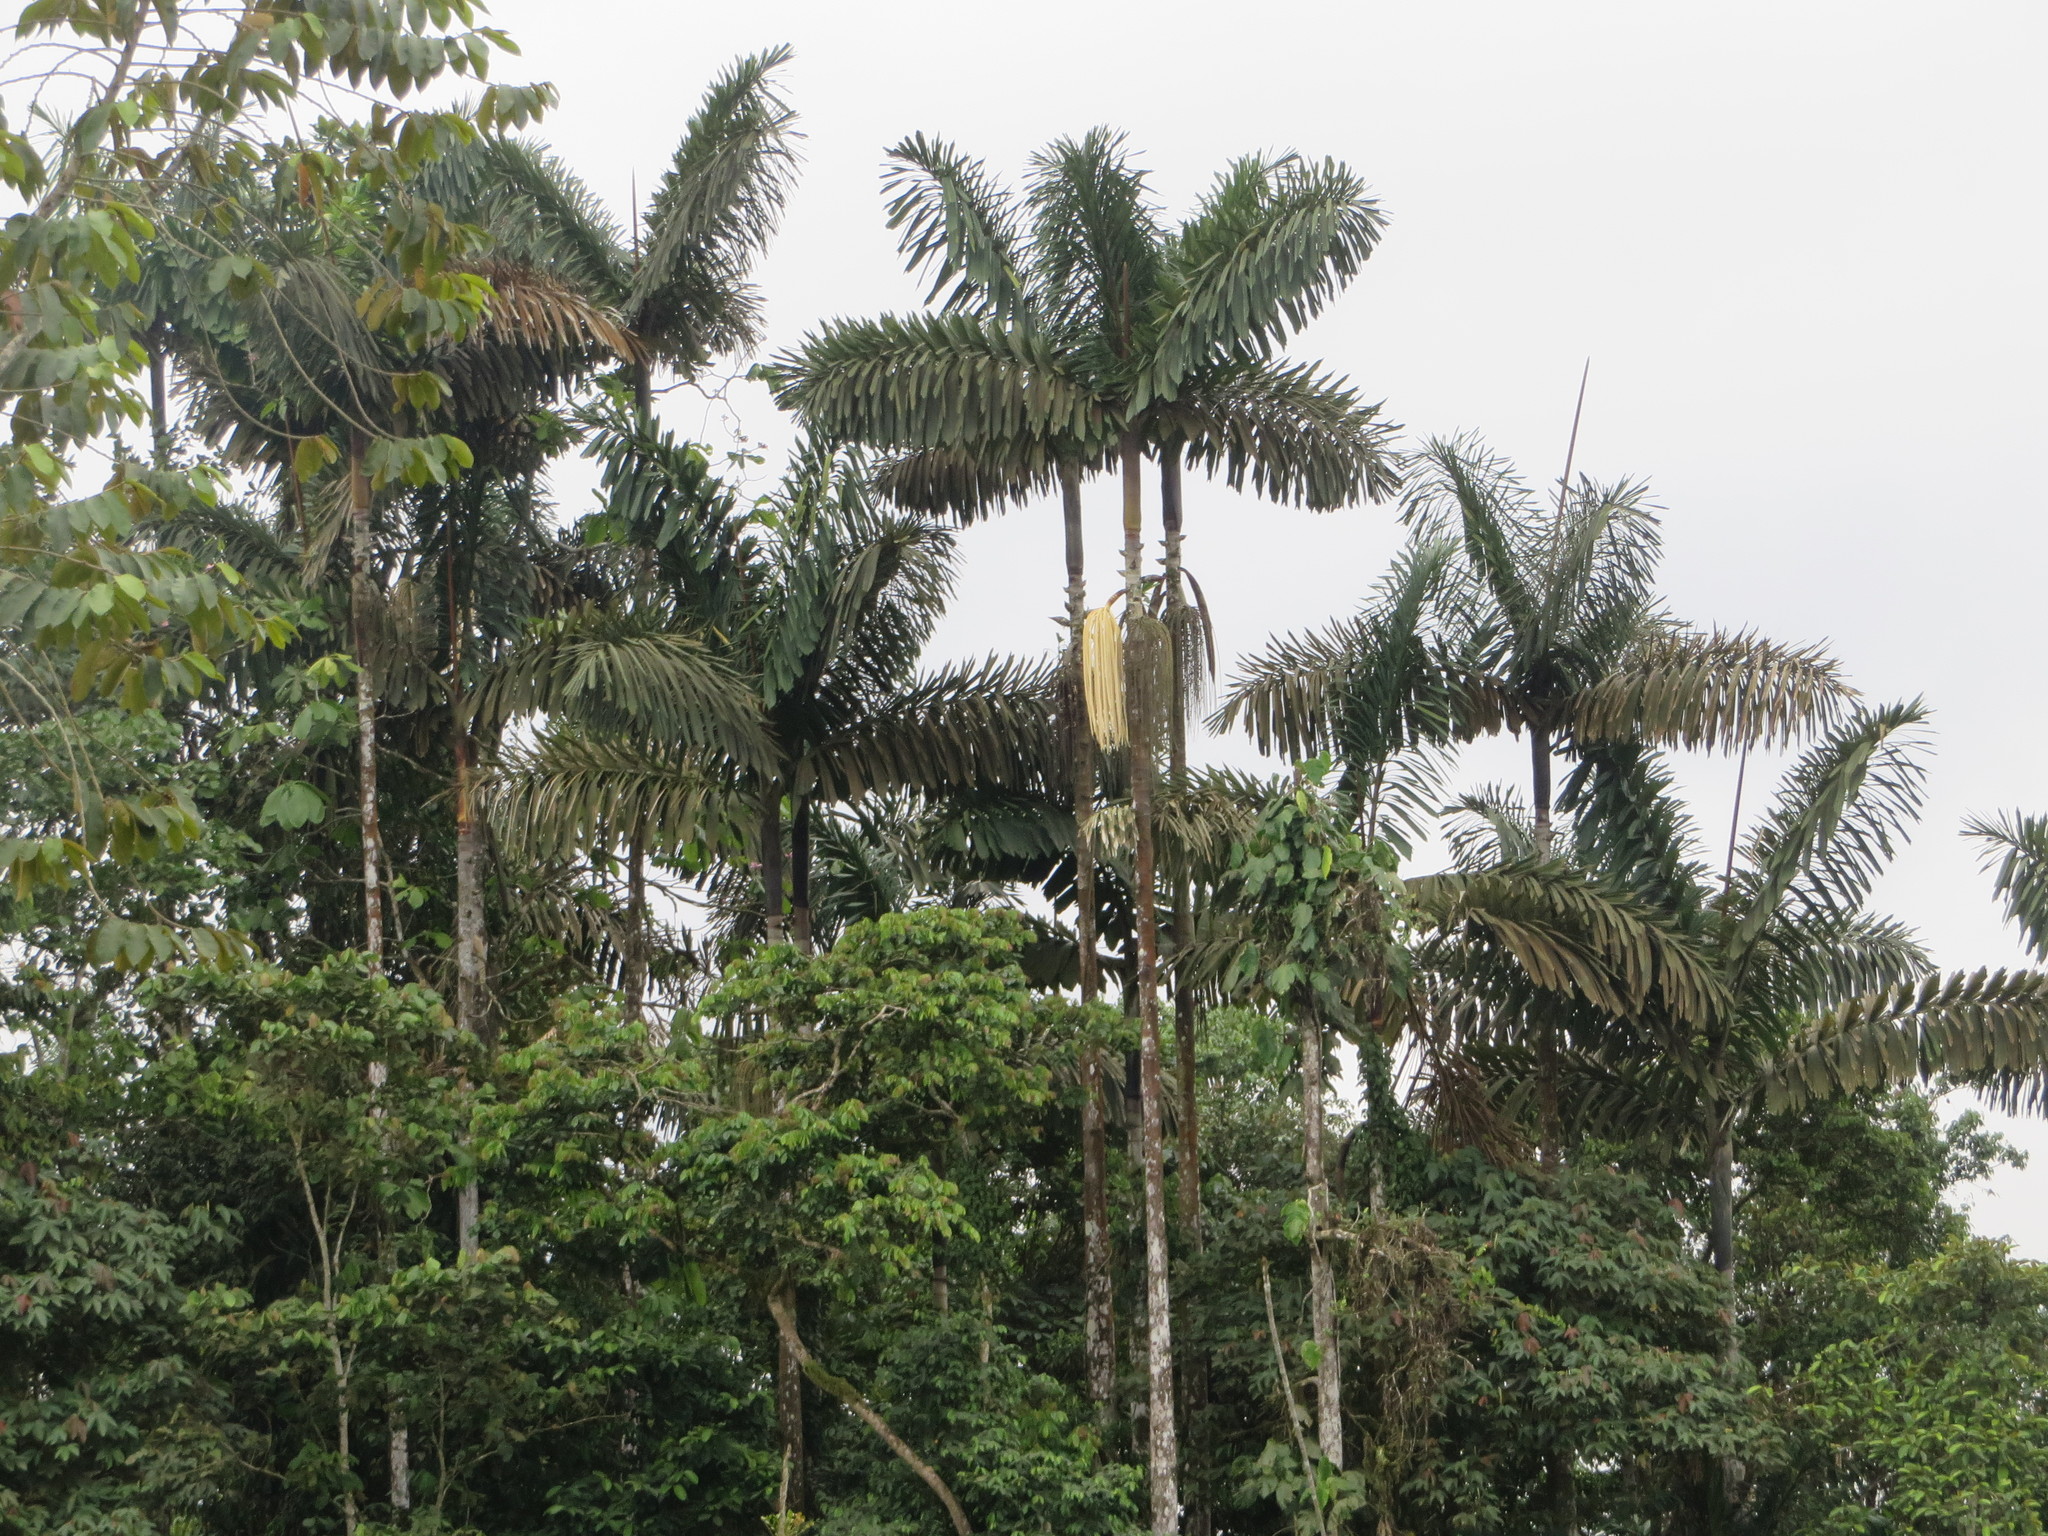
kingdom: Plantae
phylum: Tracheophyta
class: Liliopsida
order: Arecales
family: Arecaceae
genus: Iriartea
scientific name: Iriartea deltoidea
